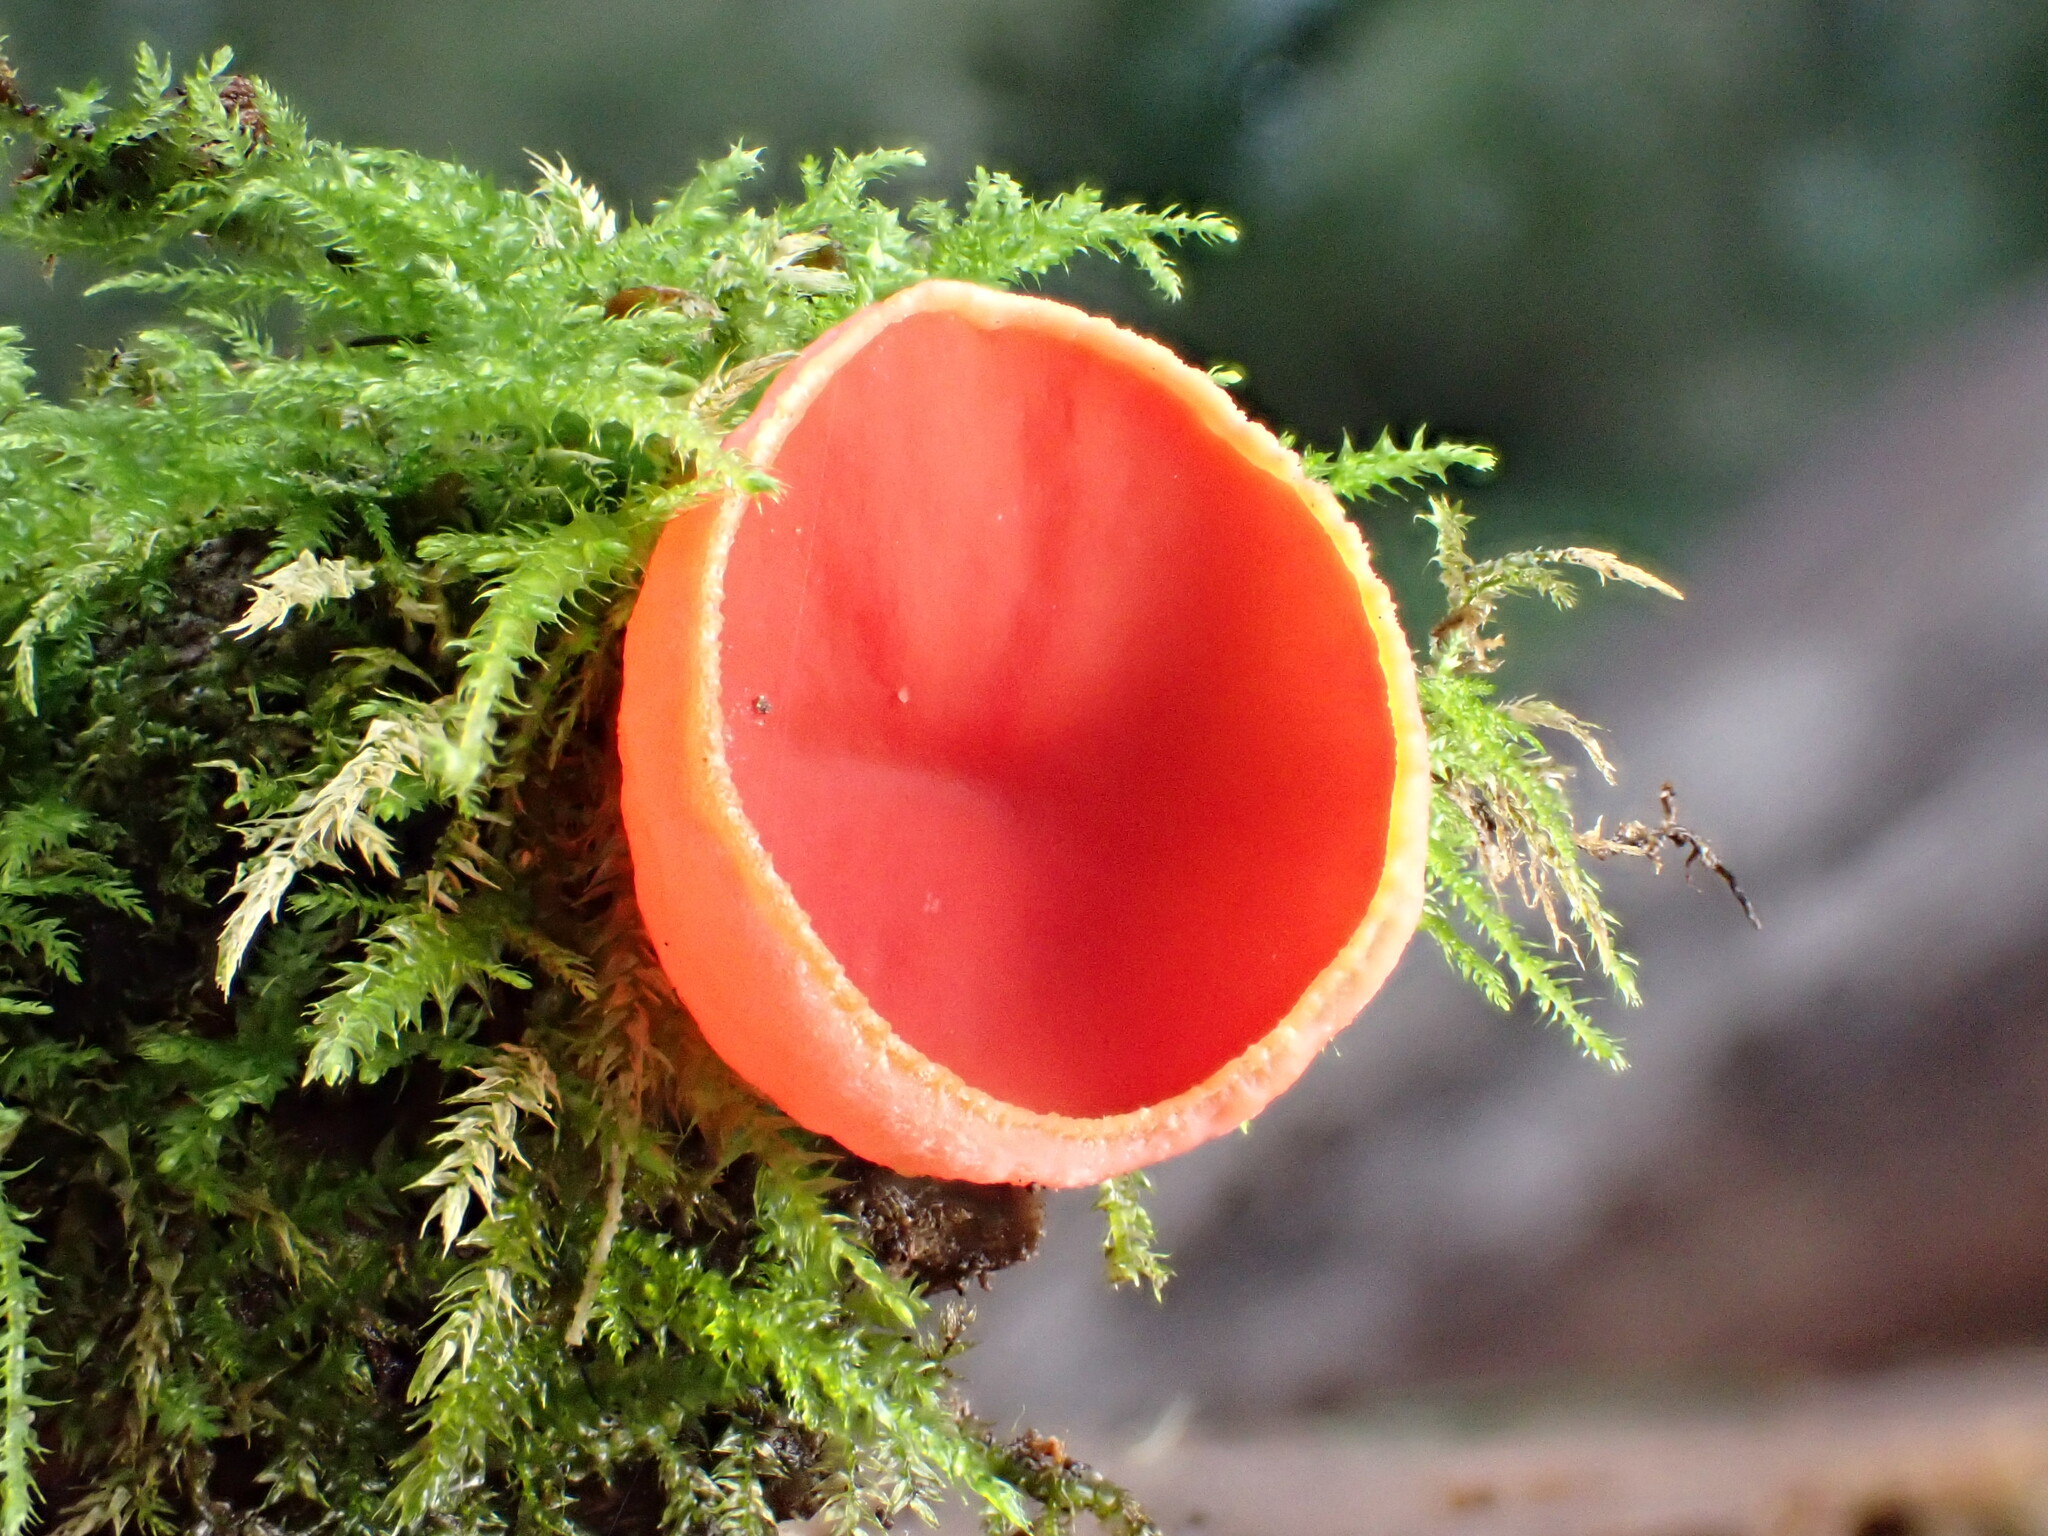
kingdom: Fungi
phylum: Ascomycota
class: Pezizomycetes
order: Pezizales
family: Sarcoscyphaceae
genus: Sarcoscypha
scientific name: Sarcoscypha coccinea
